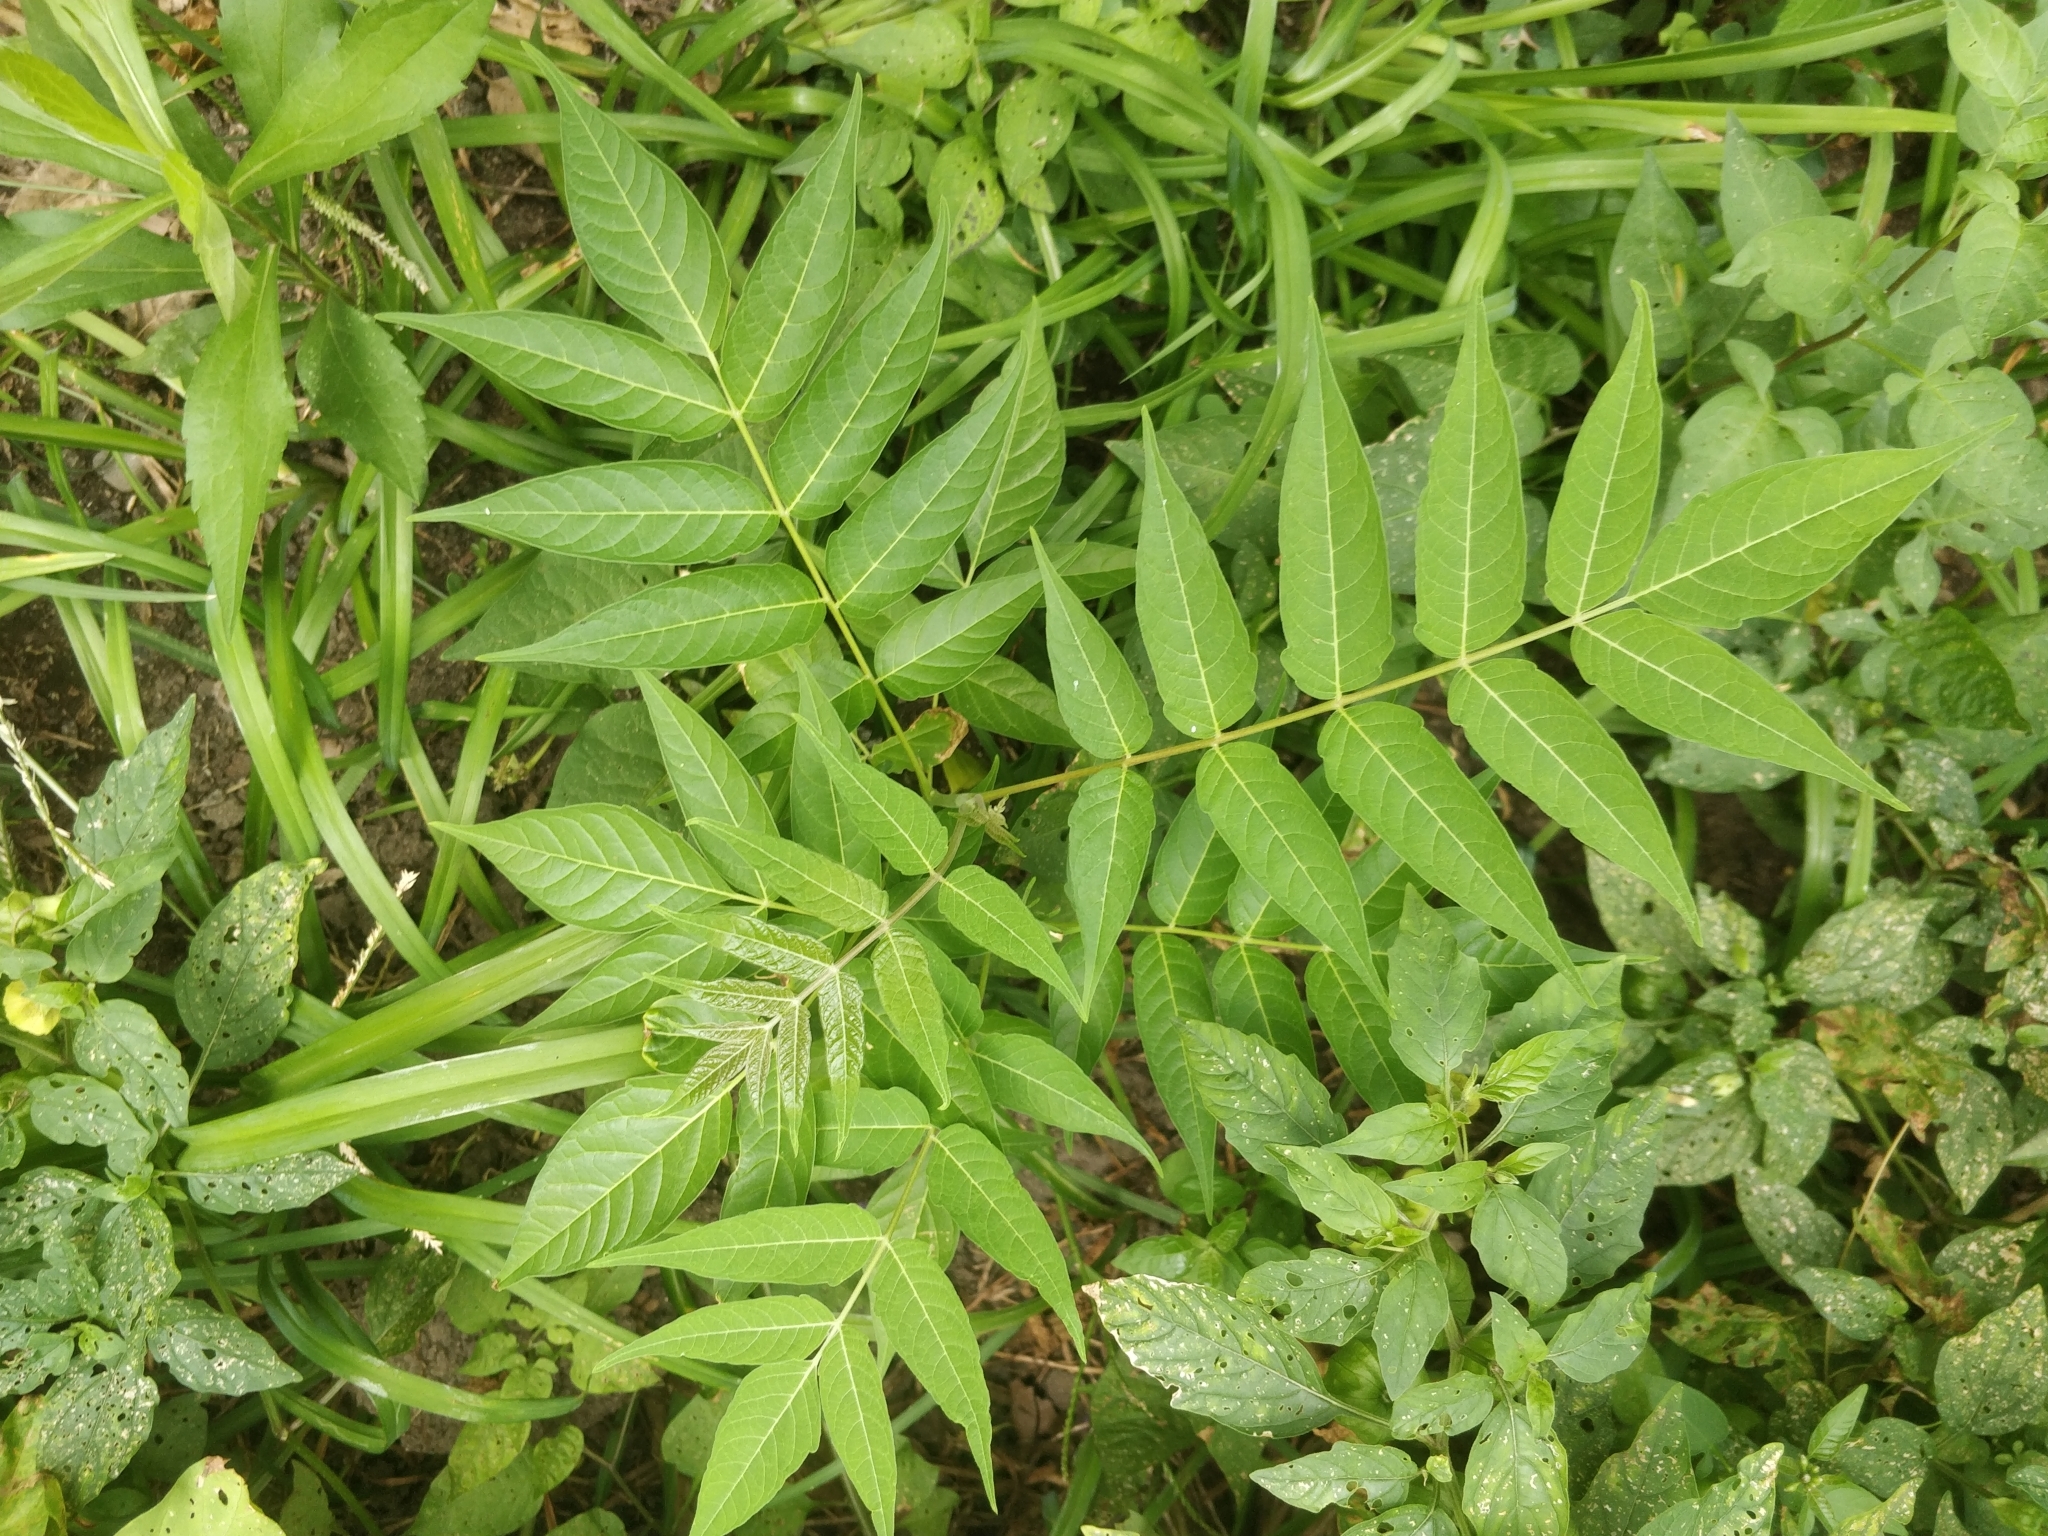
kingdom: Plantae
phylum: Tracheophyta
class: Magnoliopsida
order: Sapindales
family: Simaroubaceae
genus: Ailanthus
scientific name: Ailanthus altissima
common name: Tree-of-heaven
